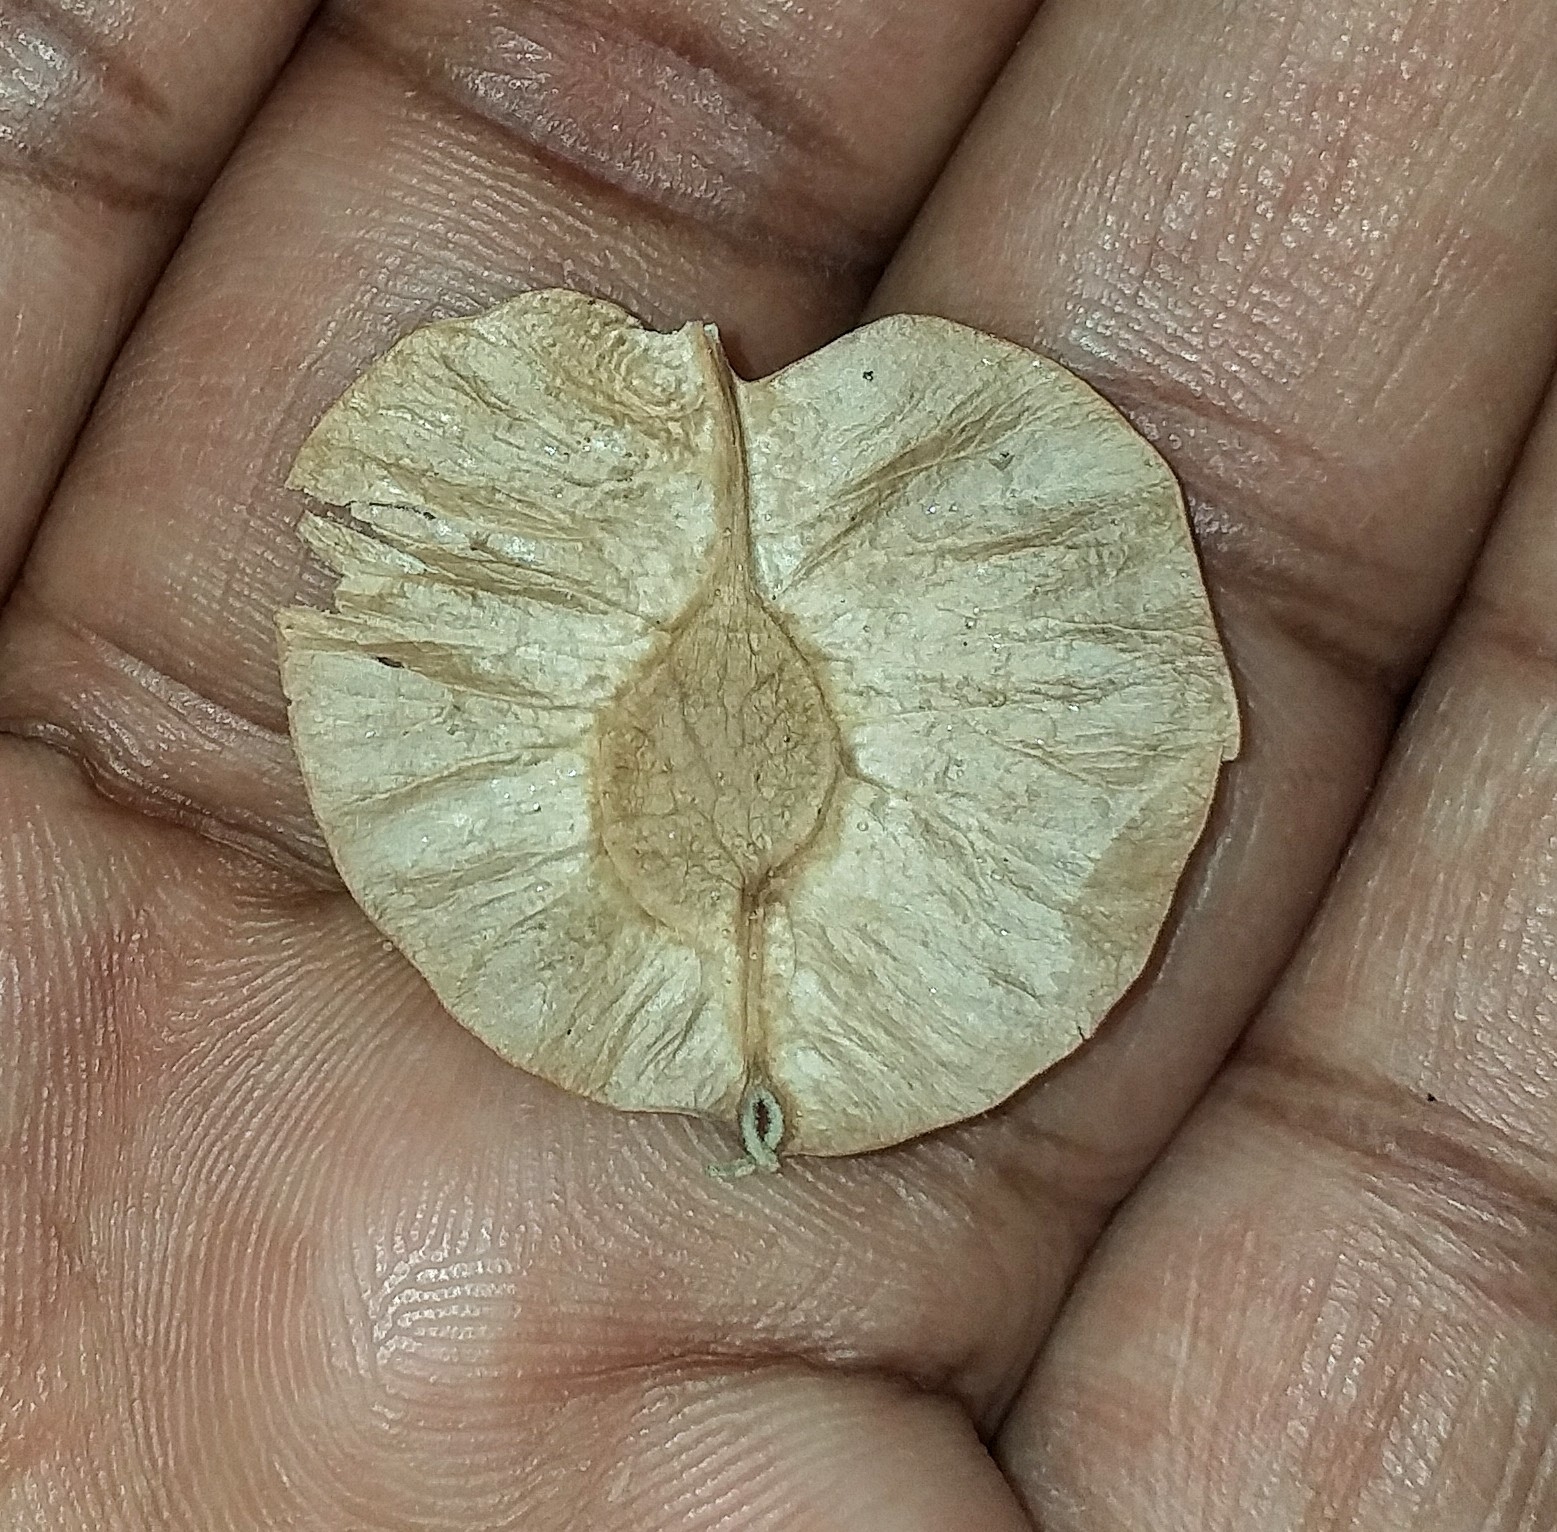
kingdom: Plantae
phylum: Tracheophyta
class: Magnoliopsida
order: Rosales
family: Ulmaceae
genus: Holoptelea
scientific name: Holoptelea integrifolia
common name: Indian-elm
